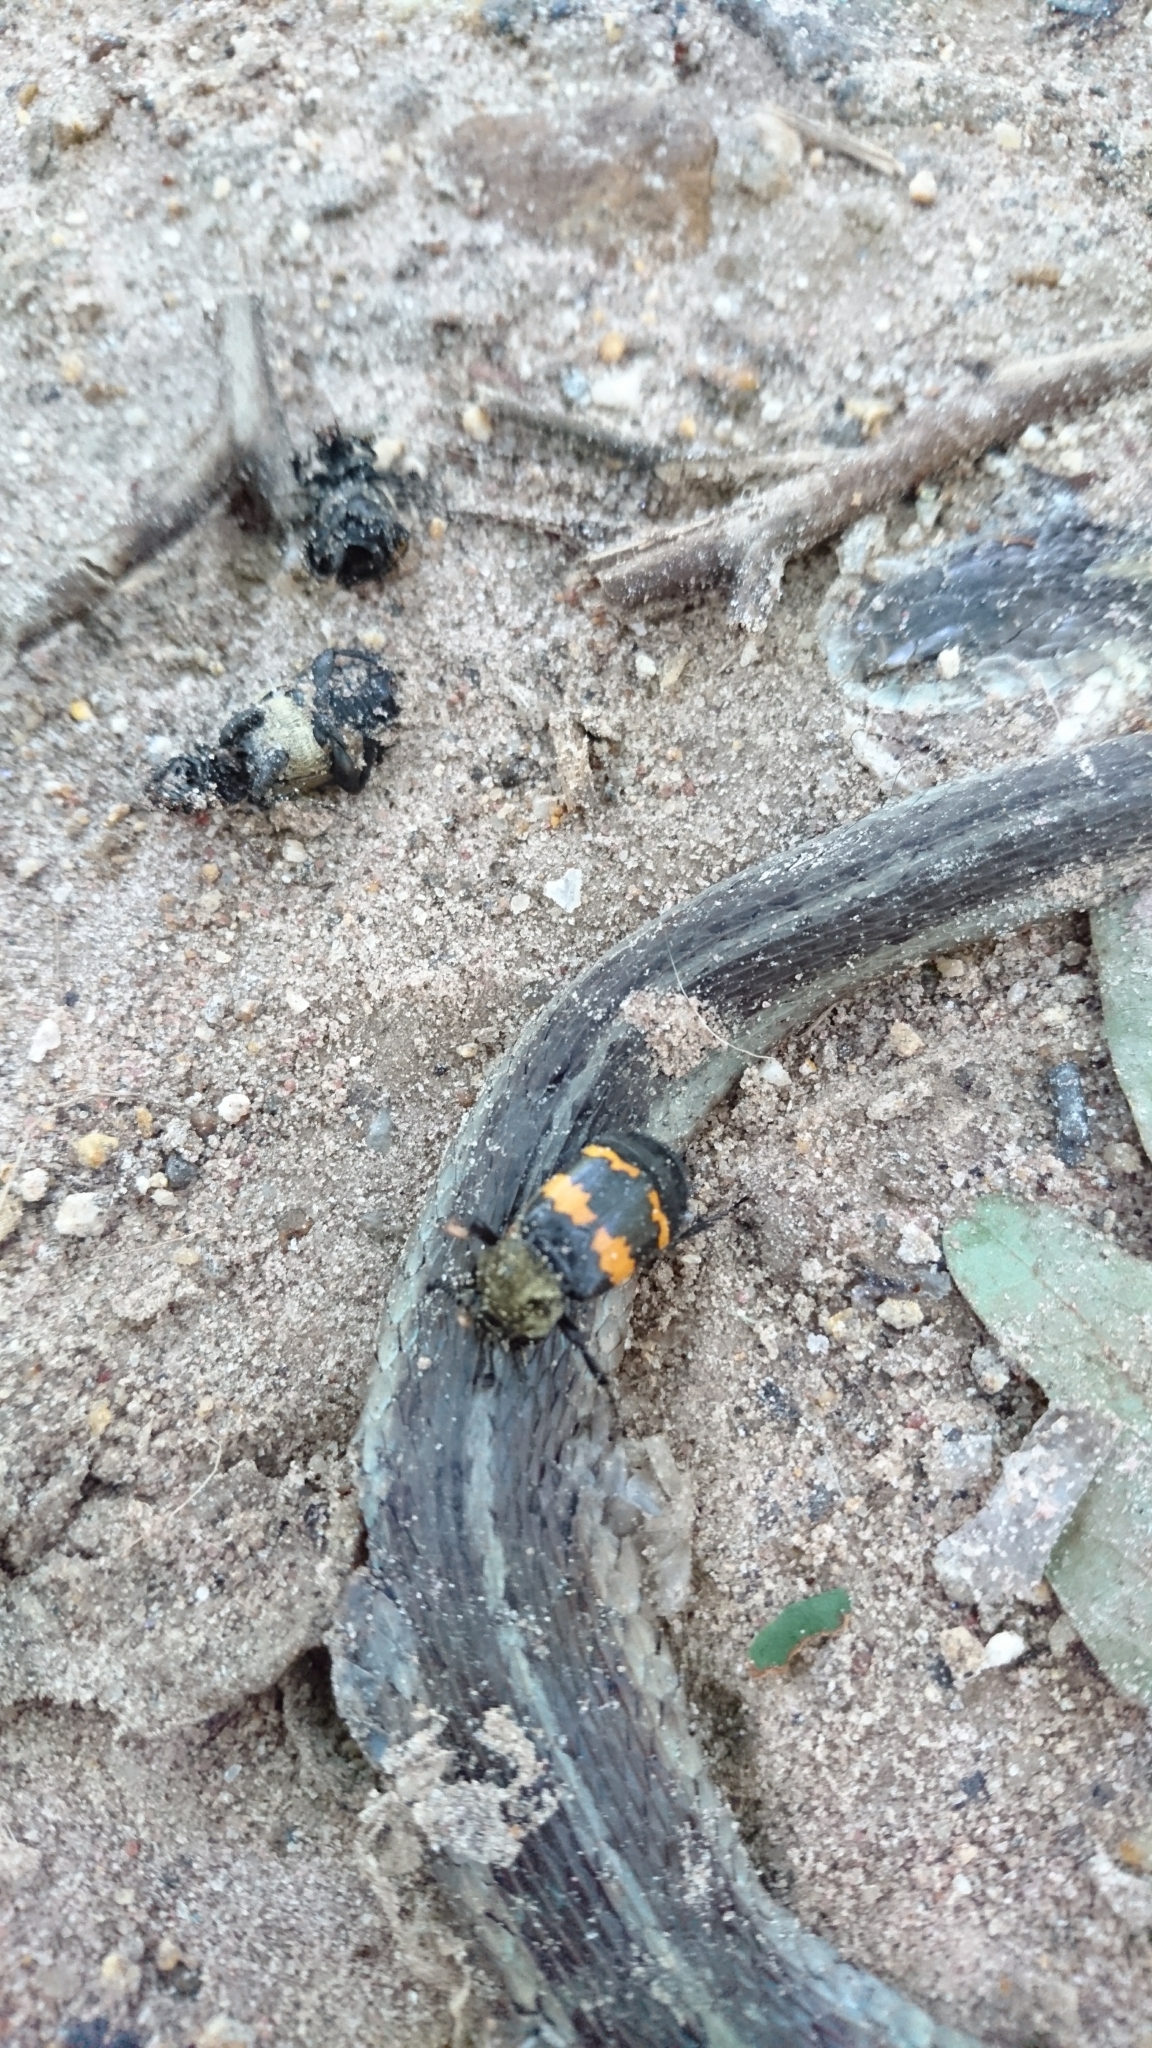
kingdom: Animalia
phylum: Chordata
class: Squamata
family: Colubridae
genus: Thamnophis
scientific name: Thamnophis sirtalis
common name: Common garter snake
